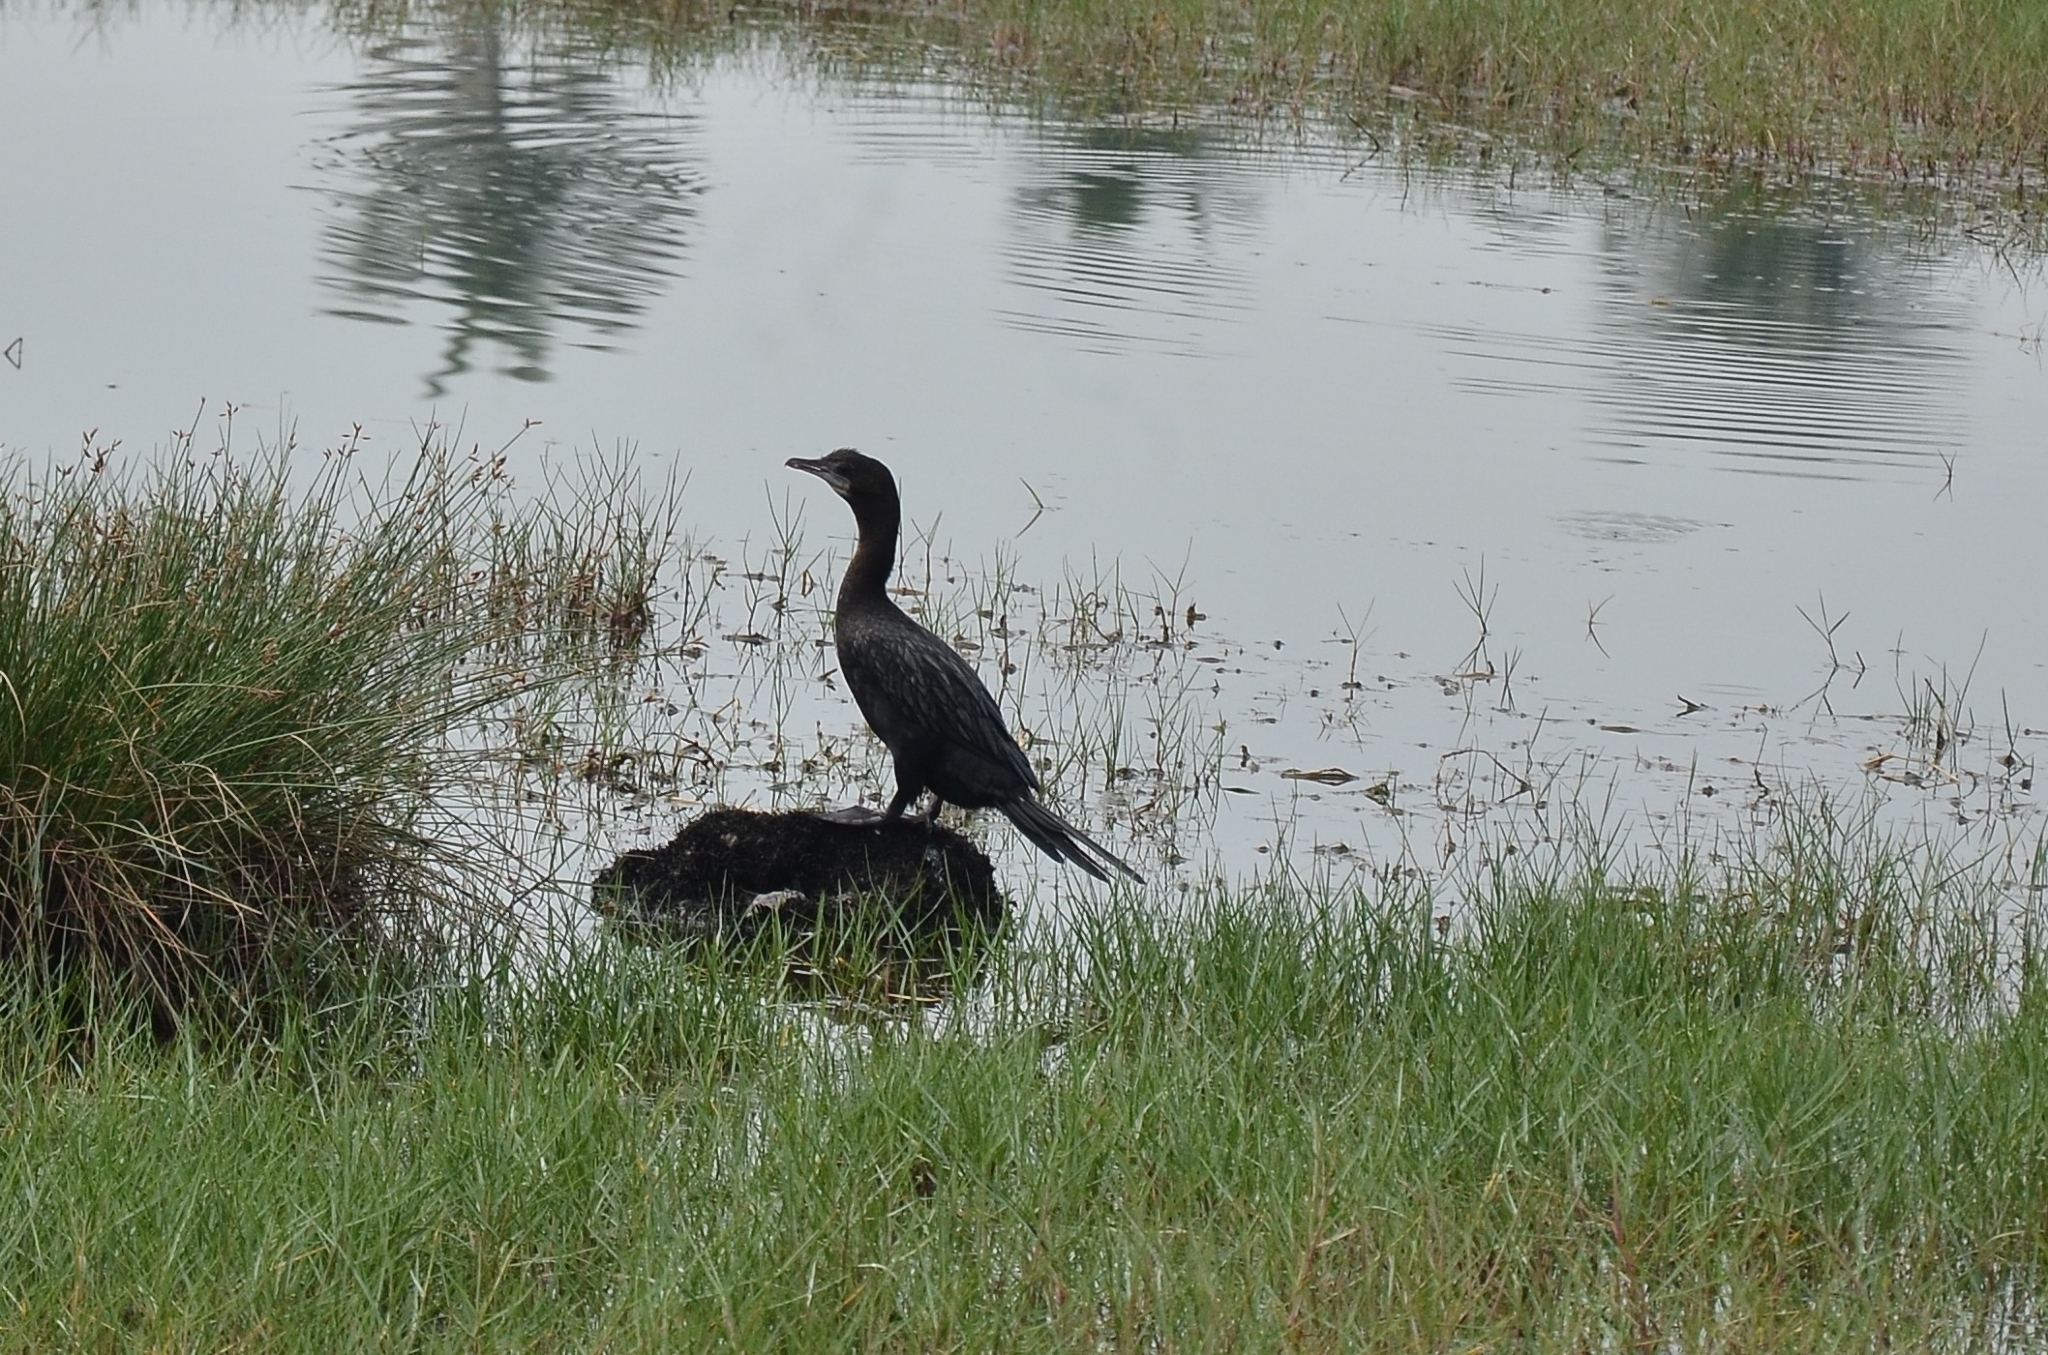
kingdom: Animalia
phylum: Chordata
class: Aves
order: Suliformes
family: Phalacrocoracidae
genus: Microcarbo
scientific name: Microcarbo niger
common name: Little cormorant
